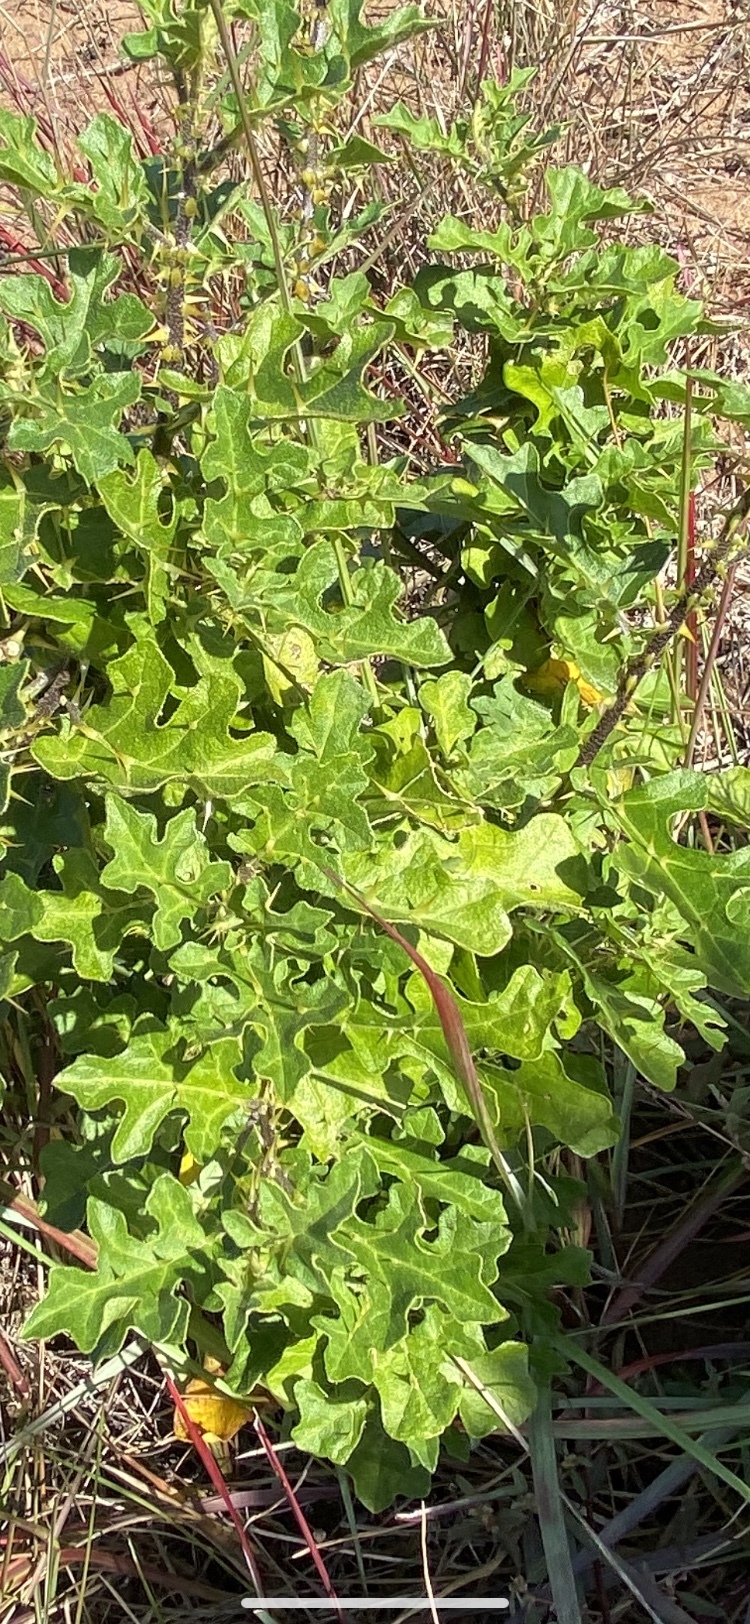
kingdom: Plantae
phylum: Tracheophyta
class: Magnoliopsida
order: Solanales
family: Solanaceae
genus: Solanum
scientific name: Solanum linnaeanum
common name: Nightshade
